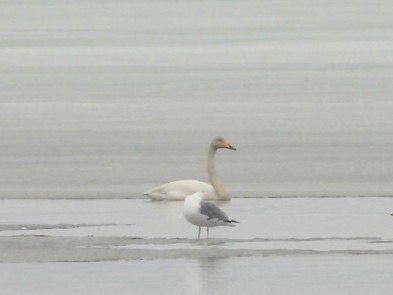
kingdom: Animalia
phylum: Chordata
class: Aves
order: Anseriformes
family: Anatidae
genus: Cygnus
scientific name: Cygnus cygnus
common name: Whooper swan
